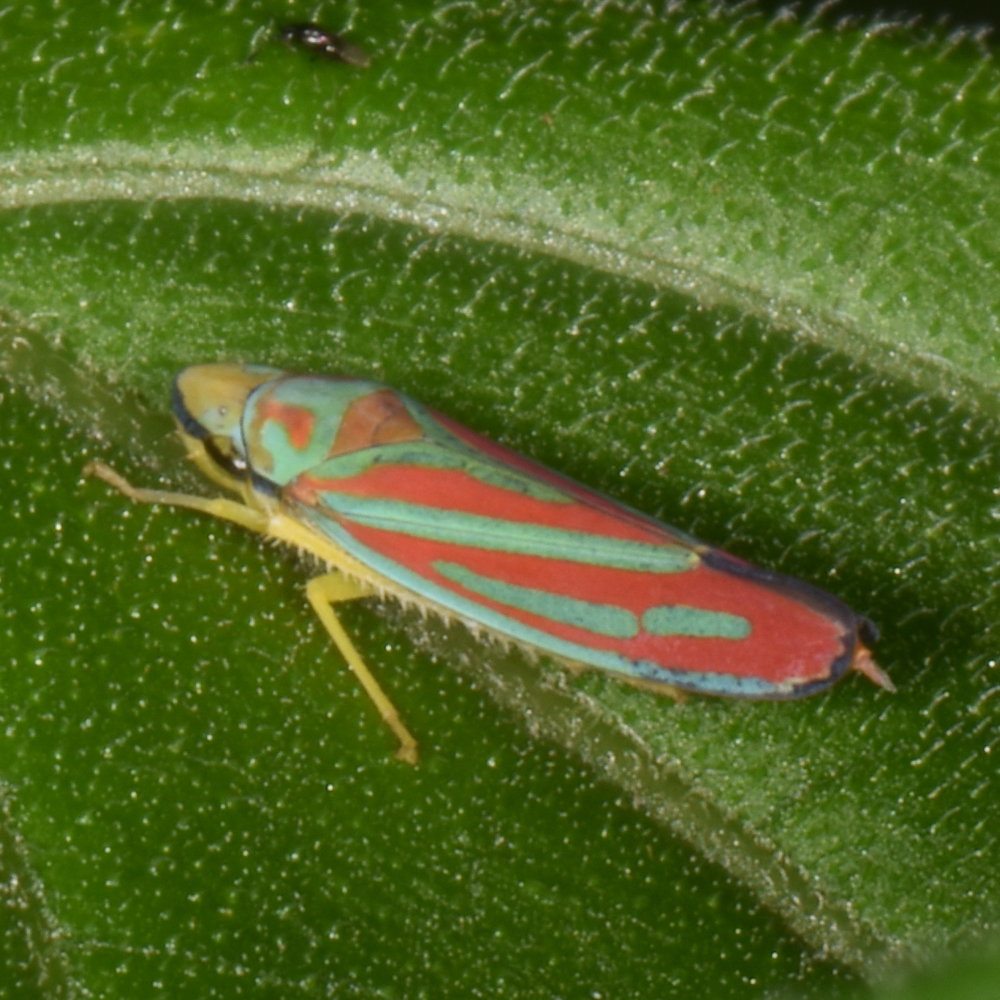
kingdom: Animalia
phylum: Arthropoda
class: Insecta
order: Hemiptera
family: Cicadellidae
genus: Graphocephala
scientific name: Graphocephala coccinea
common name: Candy-striped leafhopper
